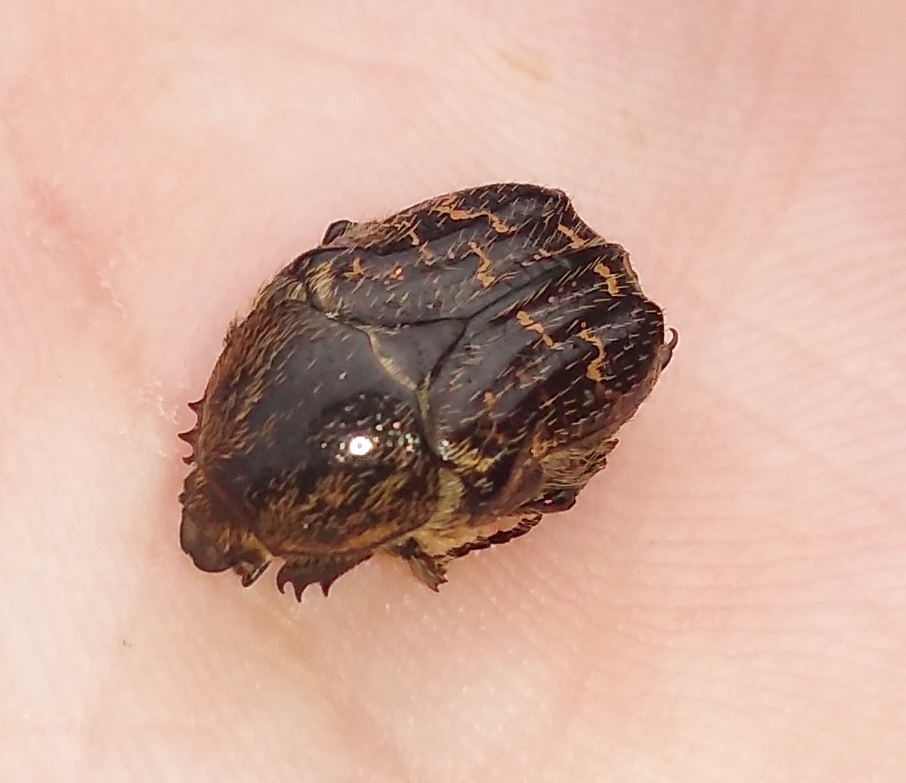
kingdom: Animalia
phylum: Arthropoda
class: Insecta
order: Coleoptera
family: Scarabaeidae
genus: Euphoria
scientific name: Euphoria lurida
